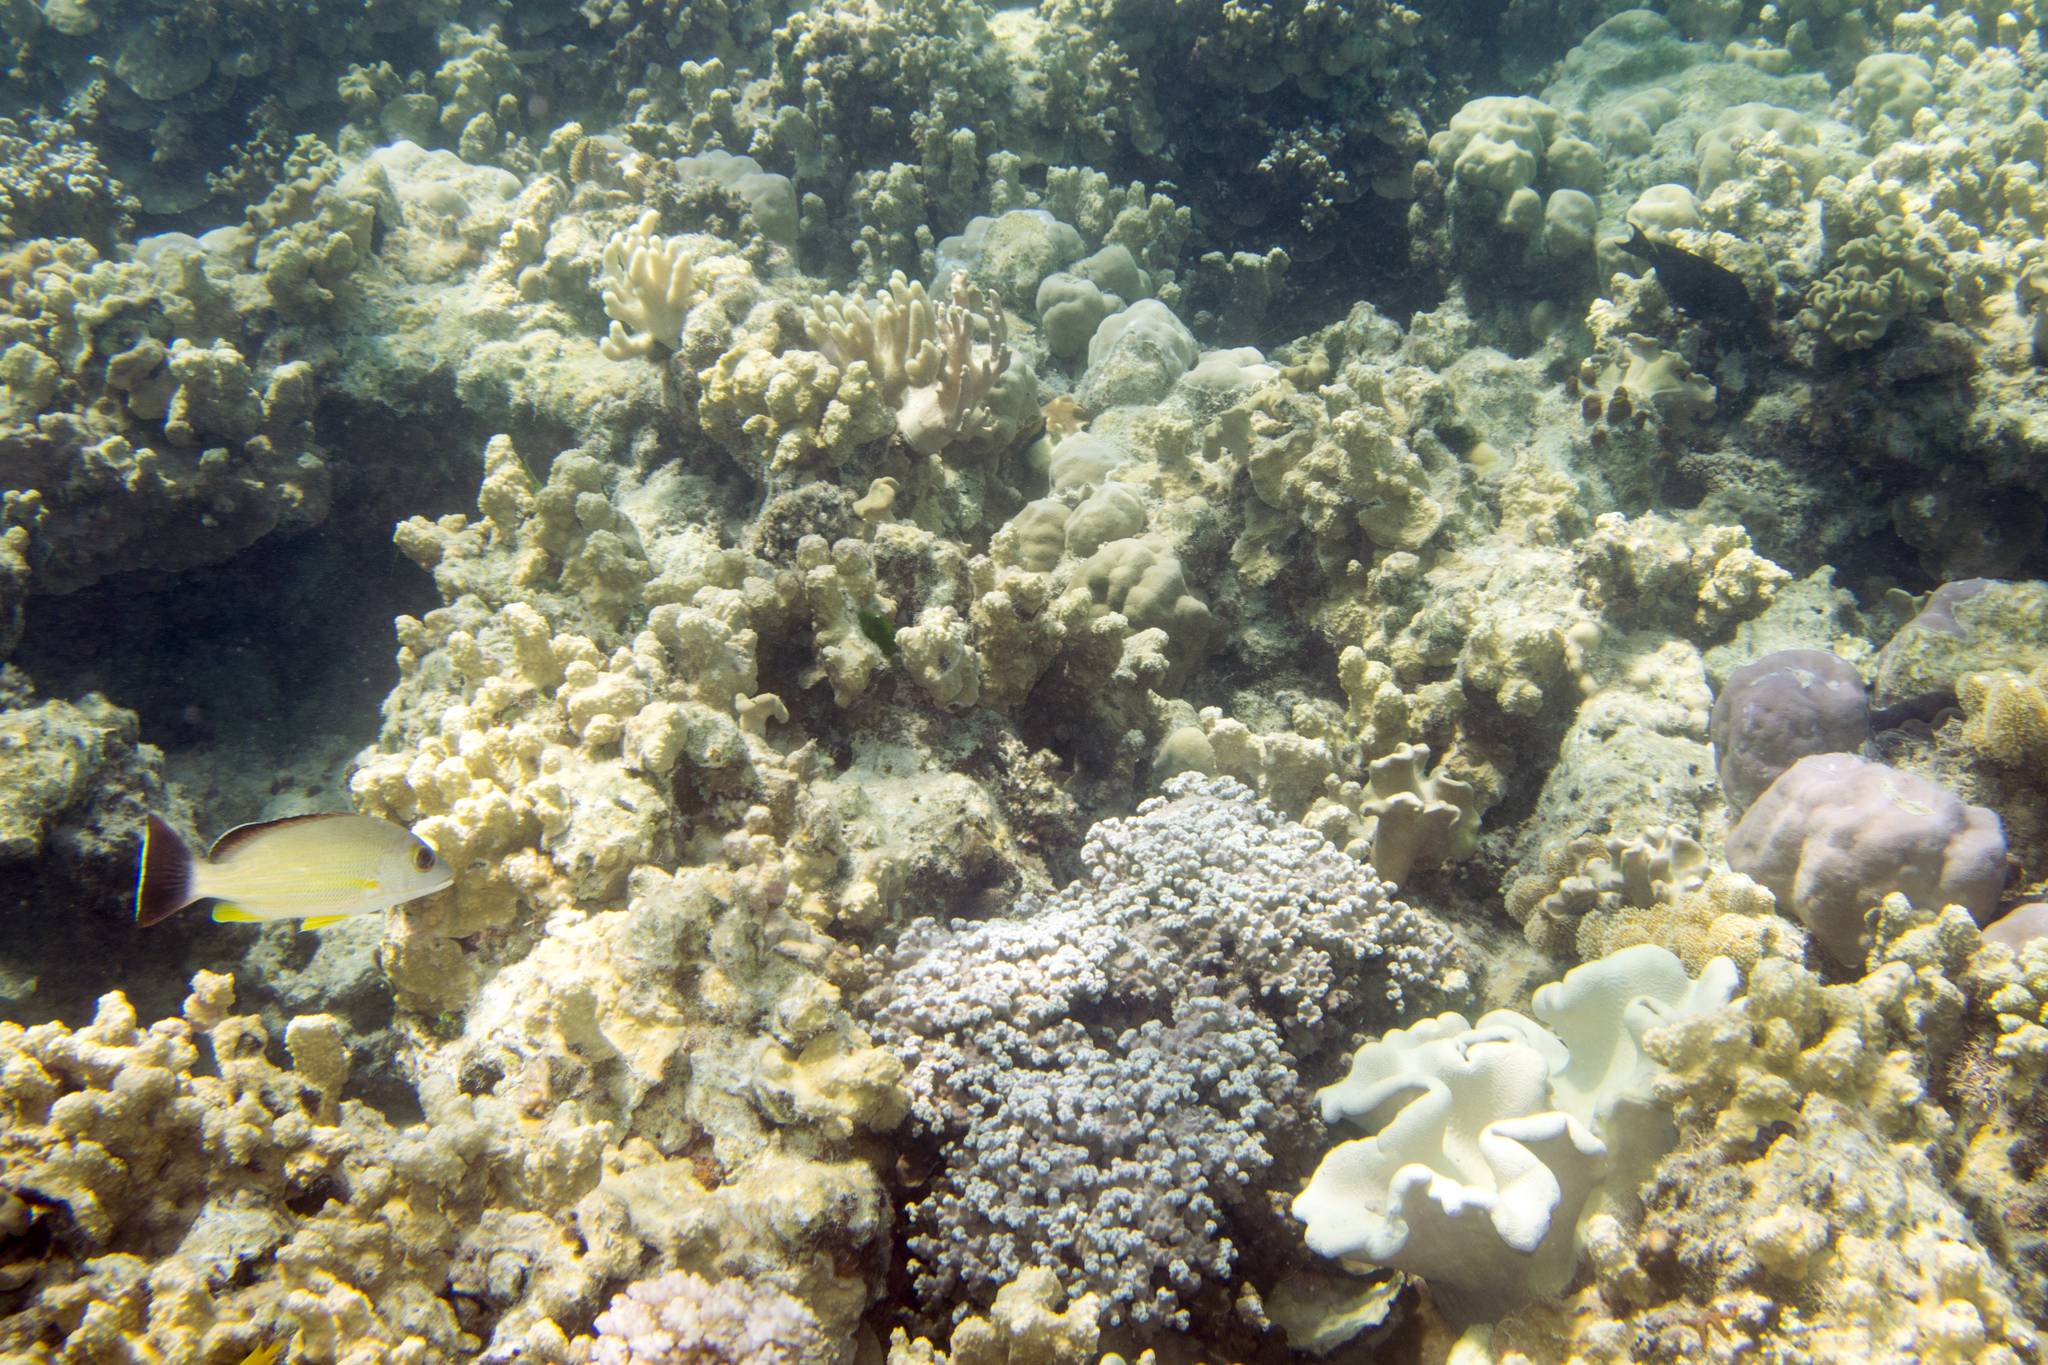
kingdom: Animalia
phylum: Chordata
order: Perciformes
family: Lutjanidae
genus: Lutjanus
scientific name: Lutjanus fulvus
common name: Blacktail snapper
